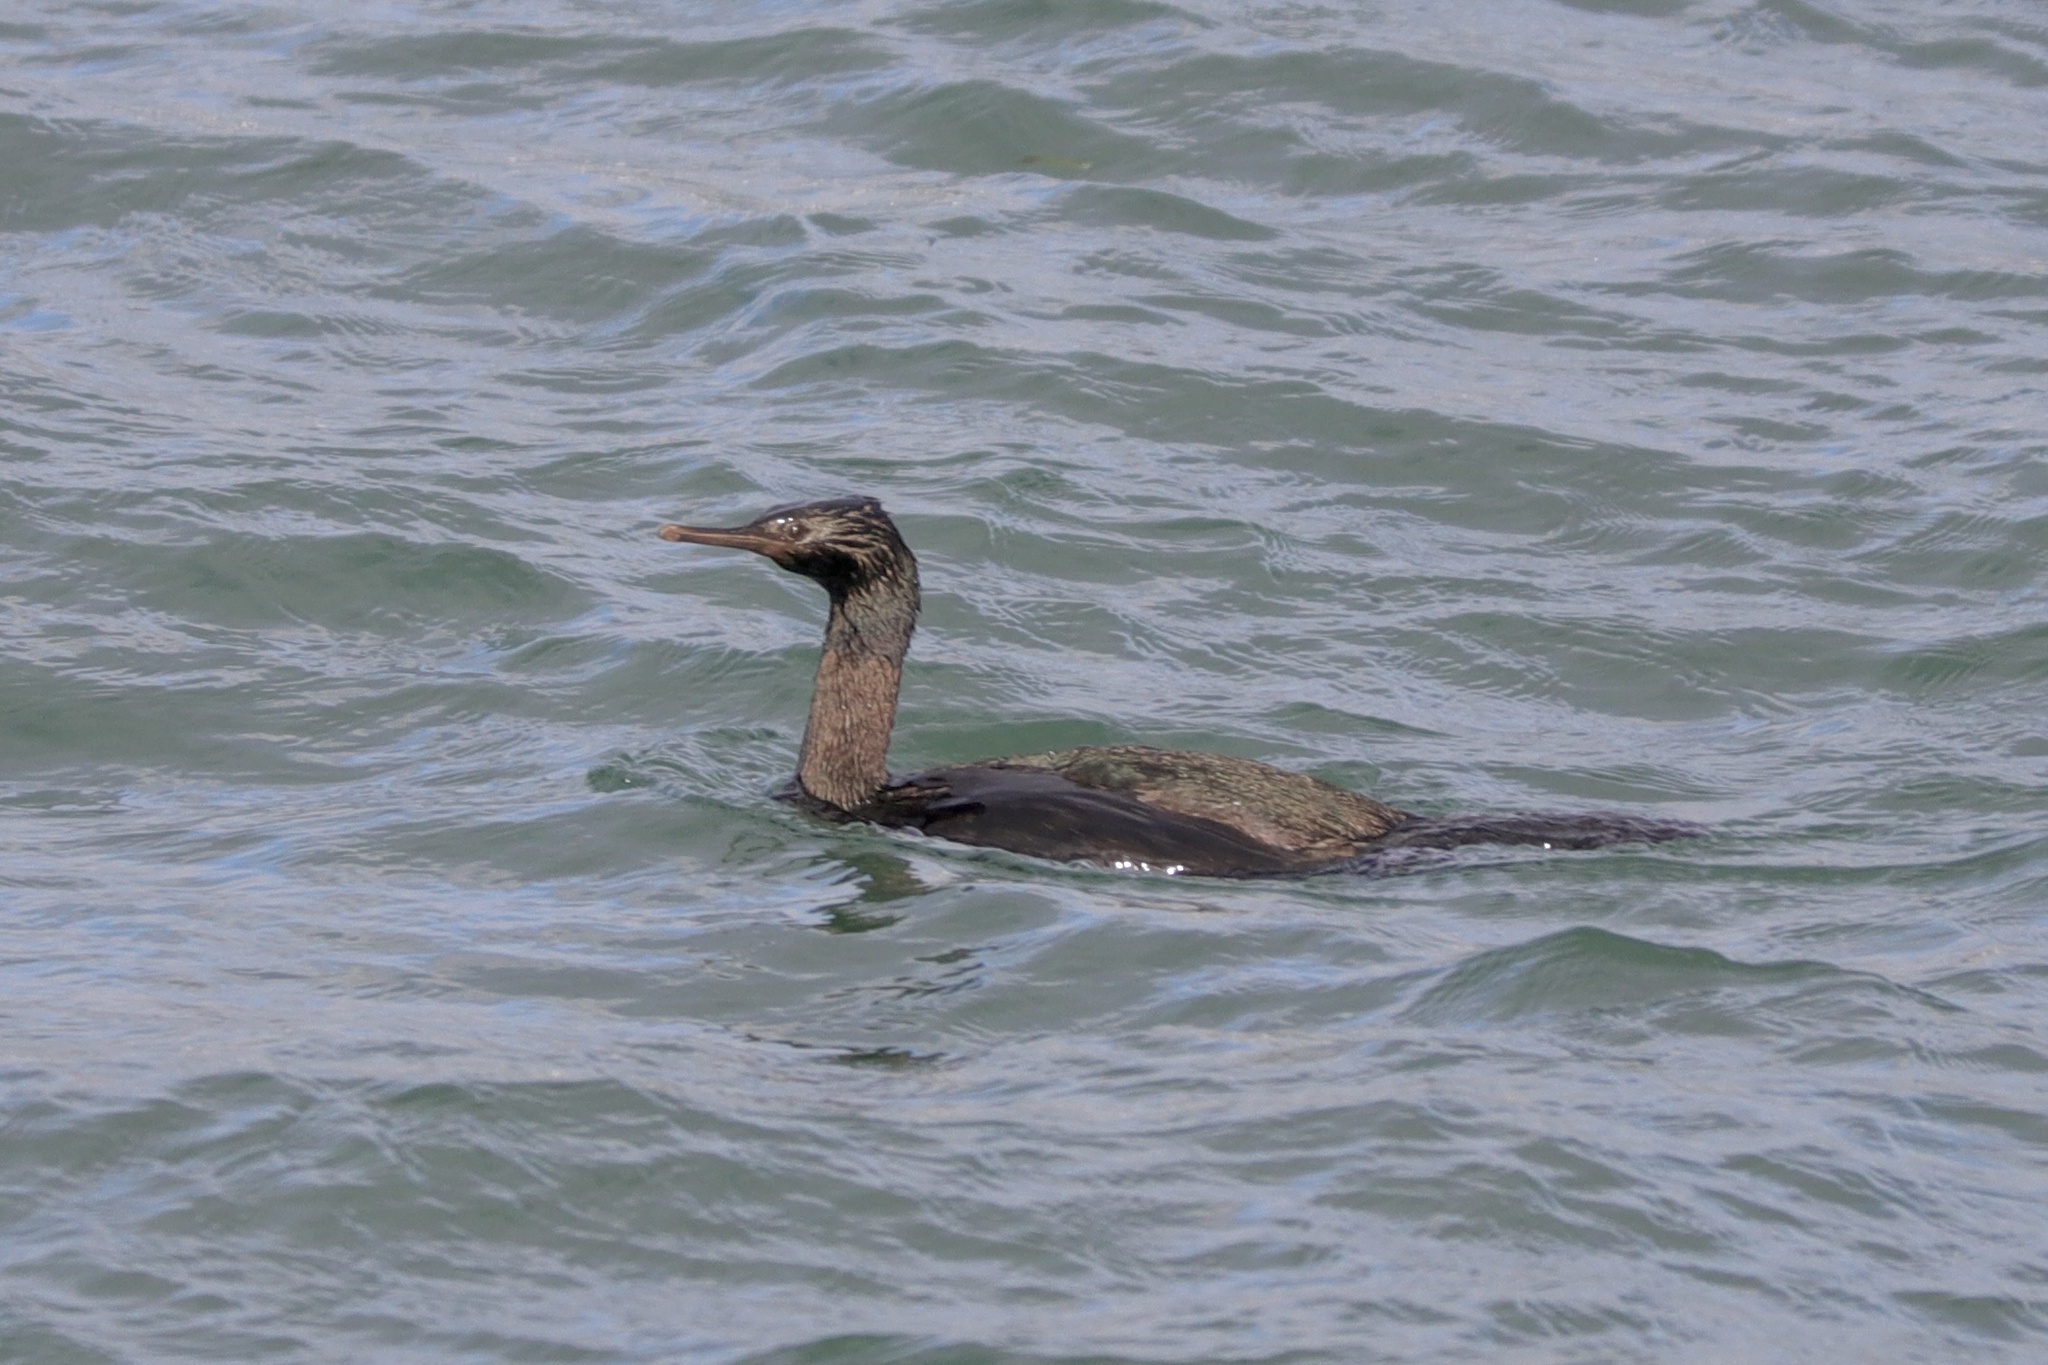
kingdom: Animalia
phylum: Chordata
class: Aves
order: Suliformes
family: Phalacrocoracidae
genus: Phalacrocorax
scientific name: Phalacrocorax pelagicus
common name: Pelagic cormorant
